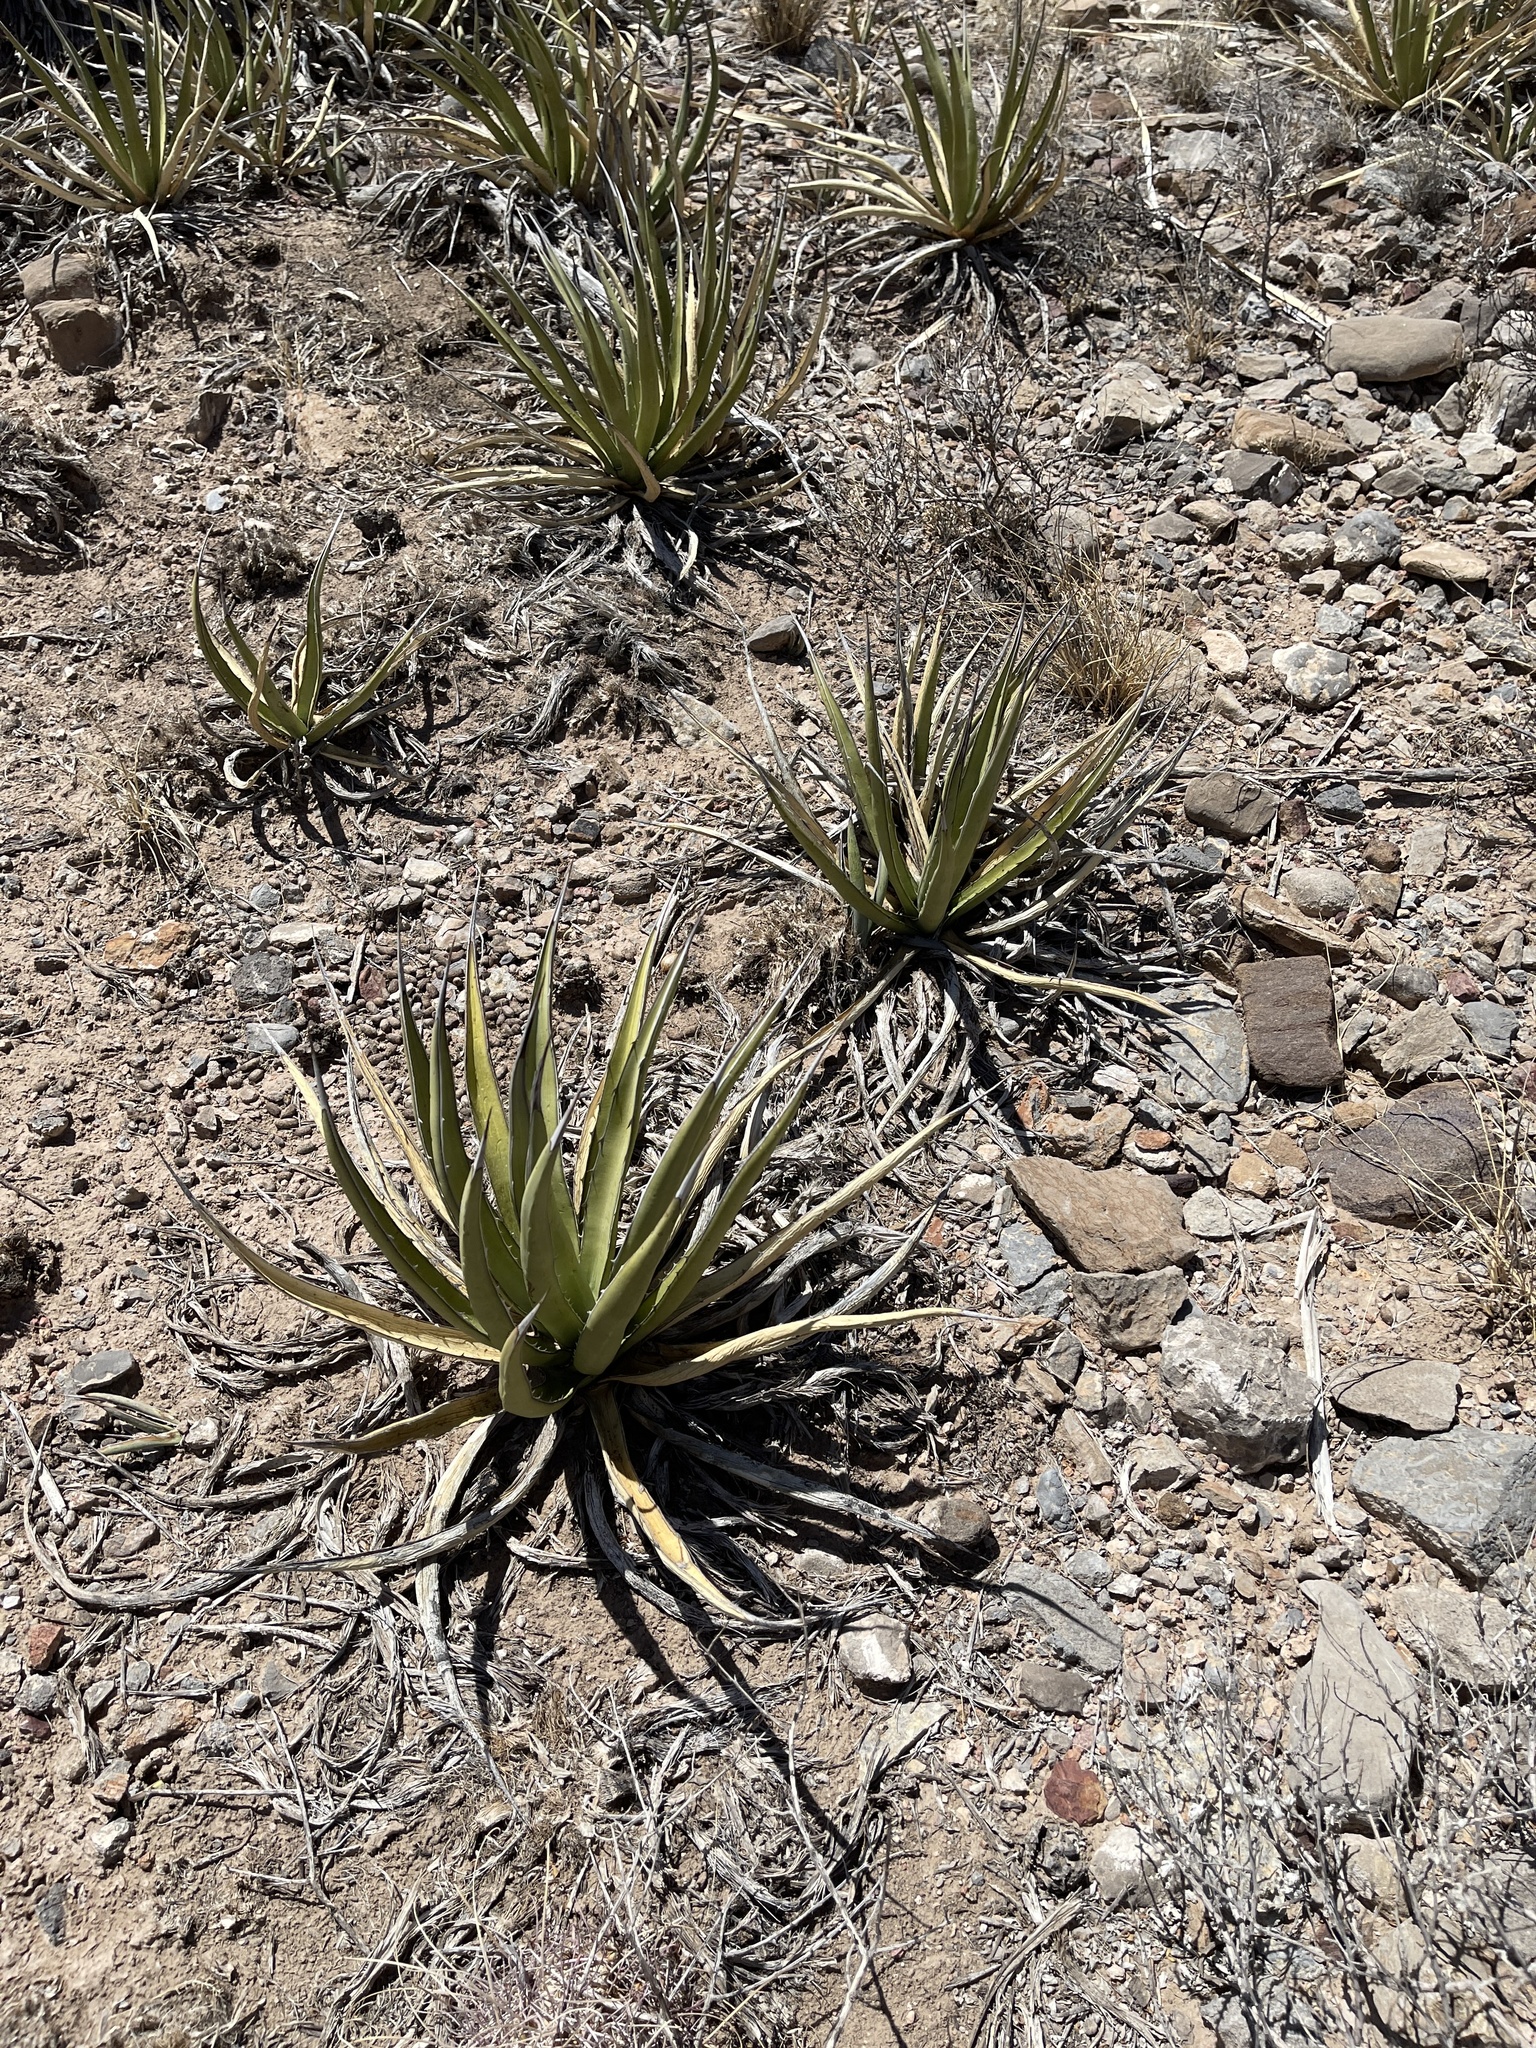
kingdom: Plantae
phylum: Tracheophyta
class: Liliopsida
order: Asparagales
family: Asparagaceae
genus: Agave
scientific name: Agave lechuguilla
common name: Lecheguilla agave
